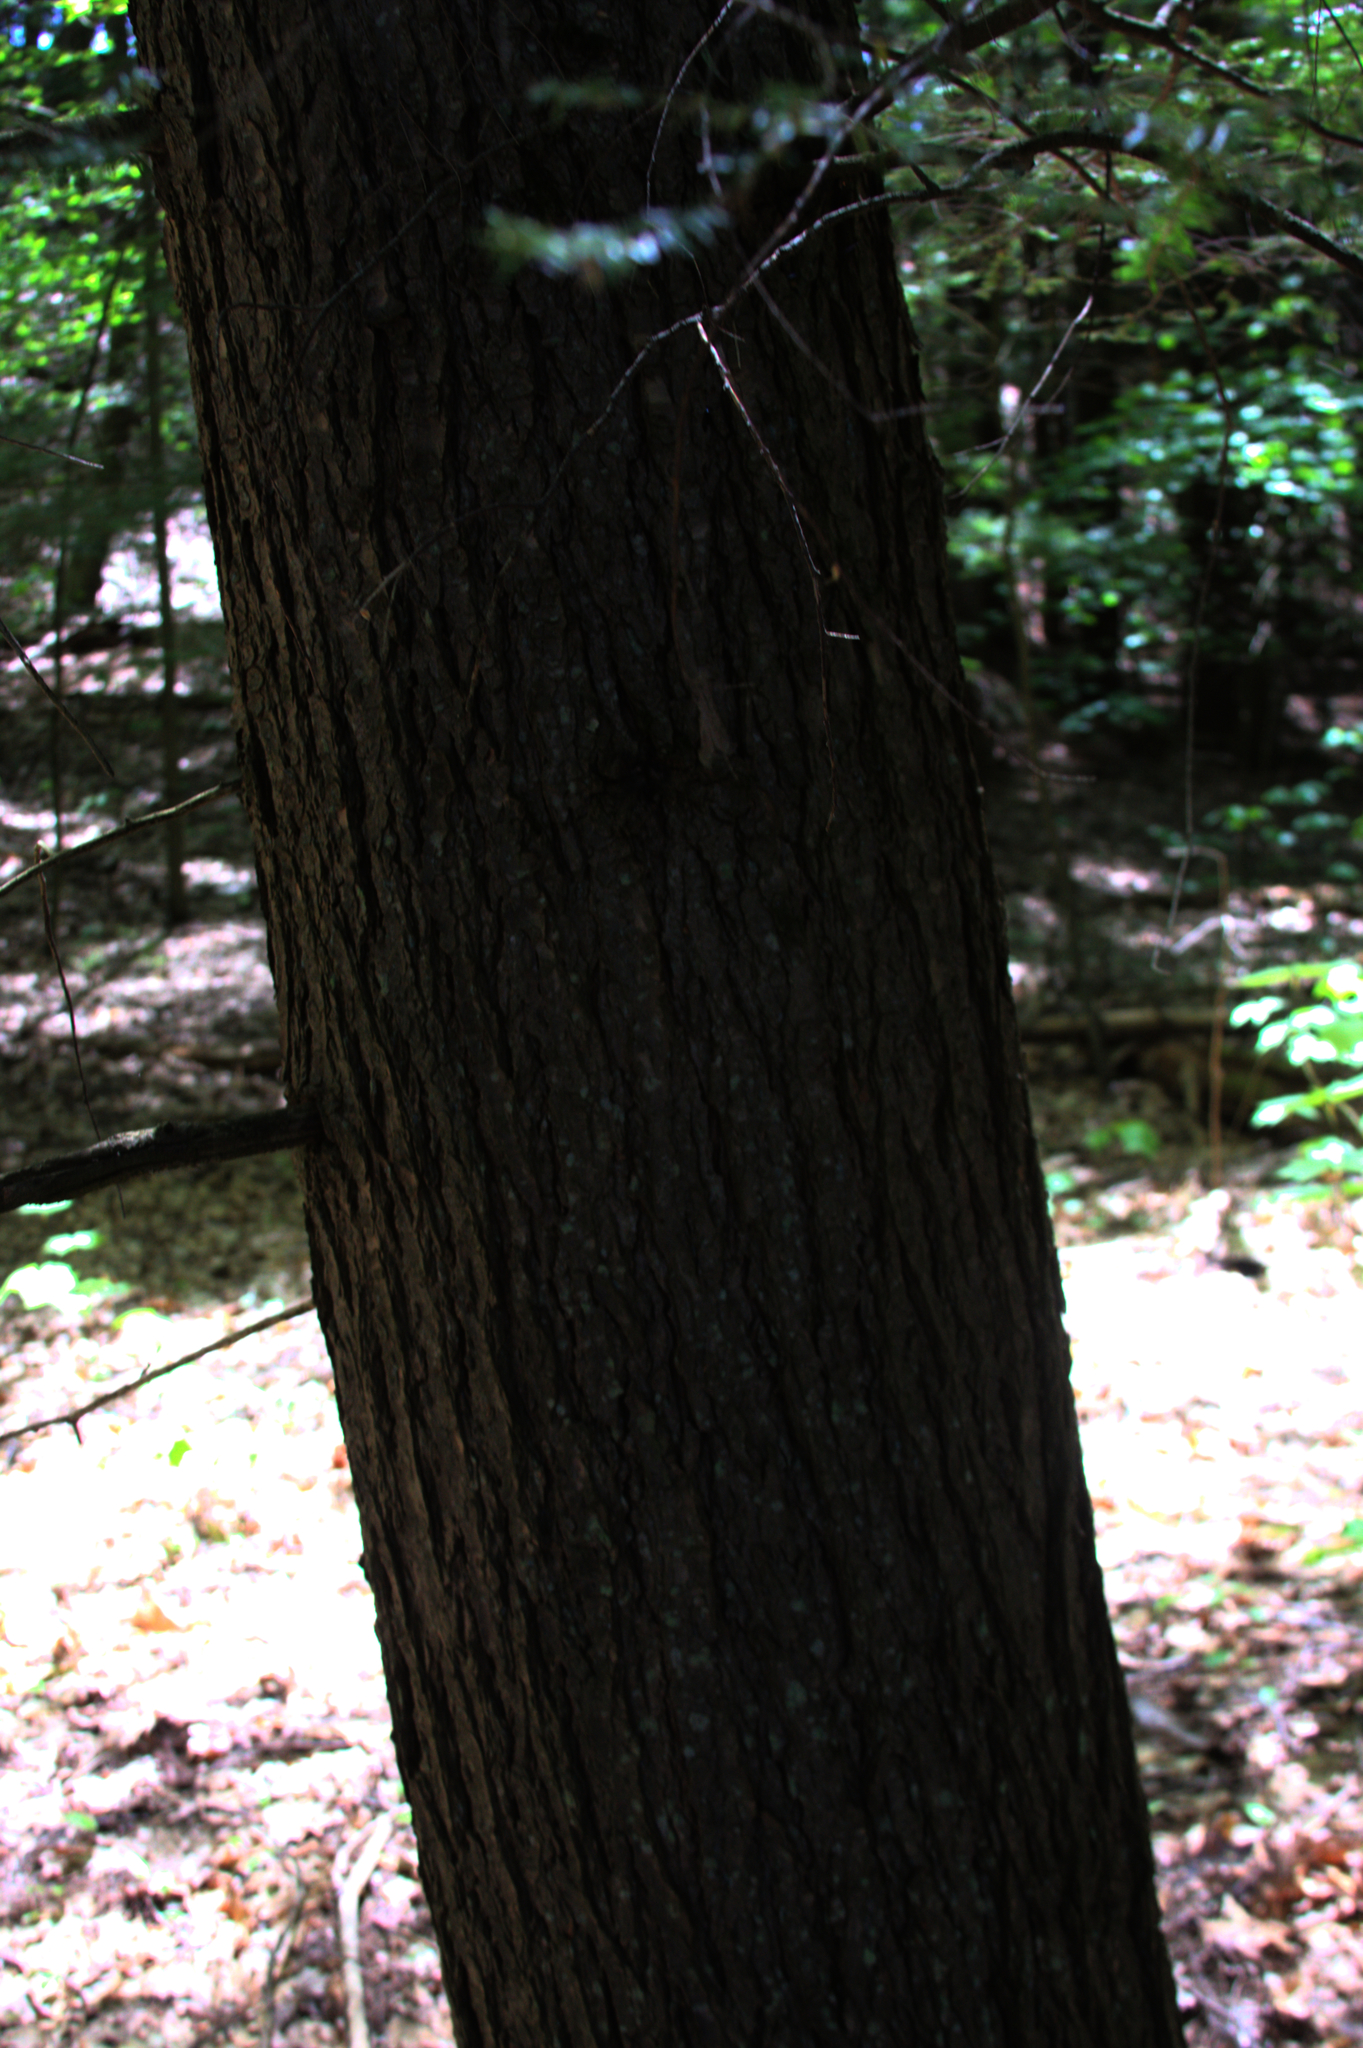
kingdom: Plantae
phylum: Tracheophyta
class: Pinopsida
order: Pinales
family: Pinaceae
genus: Tsuga
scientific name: Tsuga canadensis
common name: Eastern hemlock
